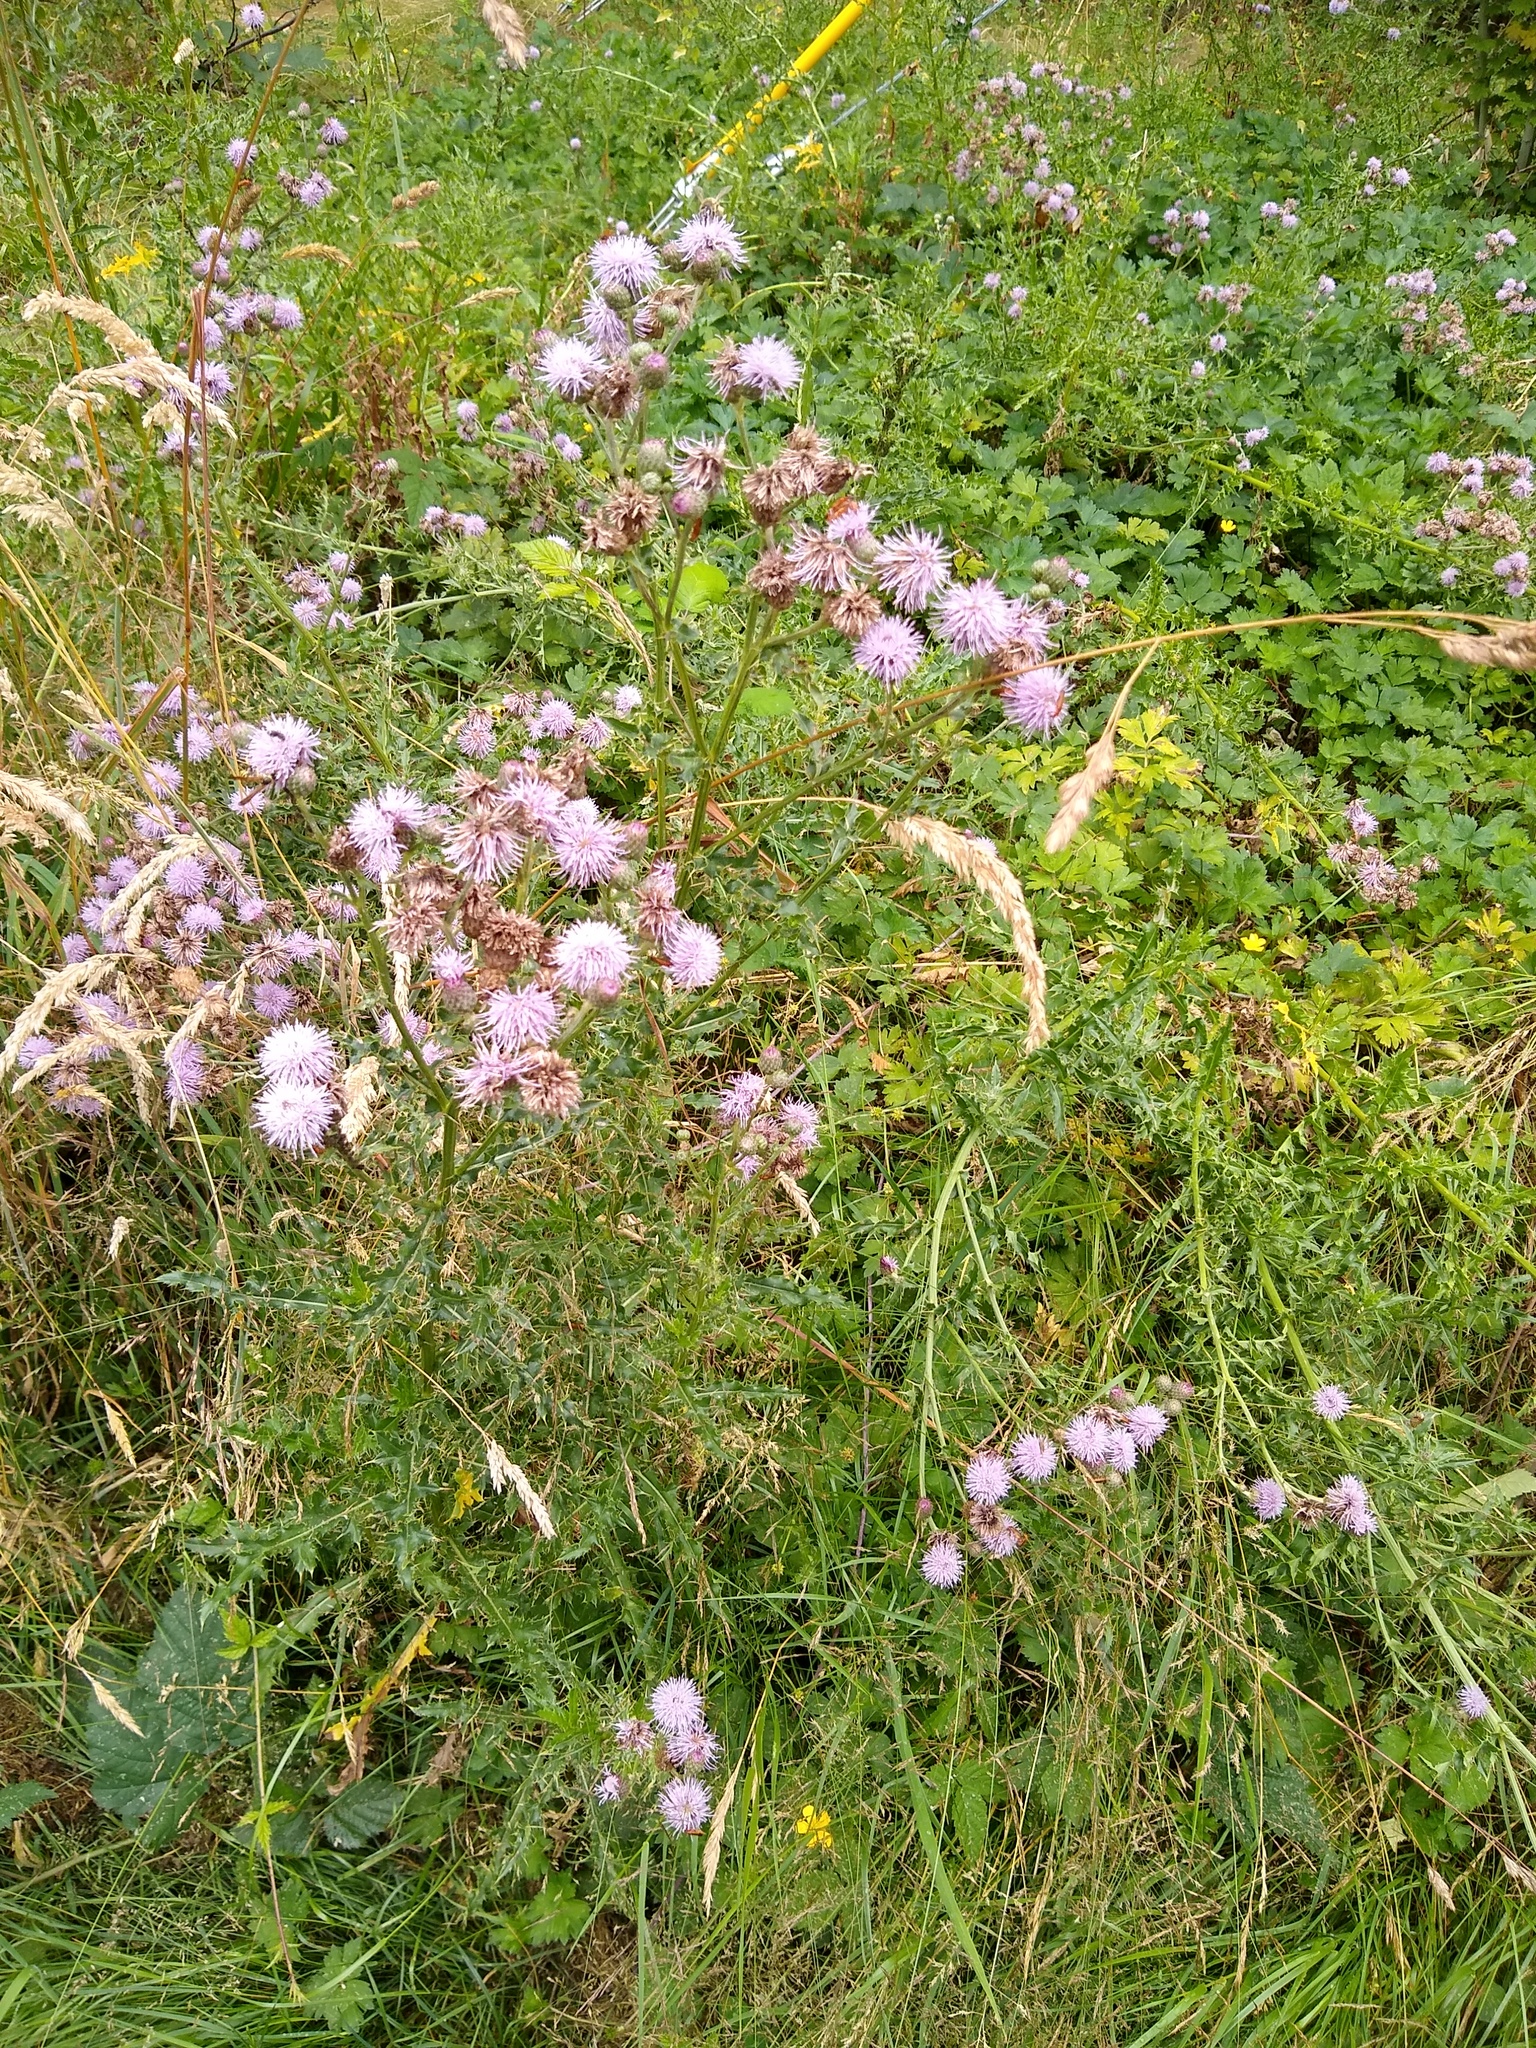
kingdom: Plantae
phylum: Tracheophyta
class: Magnoliopsida
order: Asterales
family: Asteraceae
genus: Cirsium
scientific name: Cirsium arvense
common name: Creeping thistle
